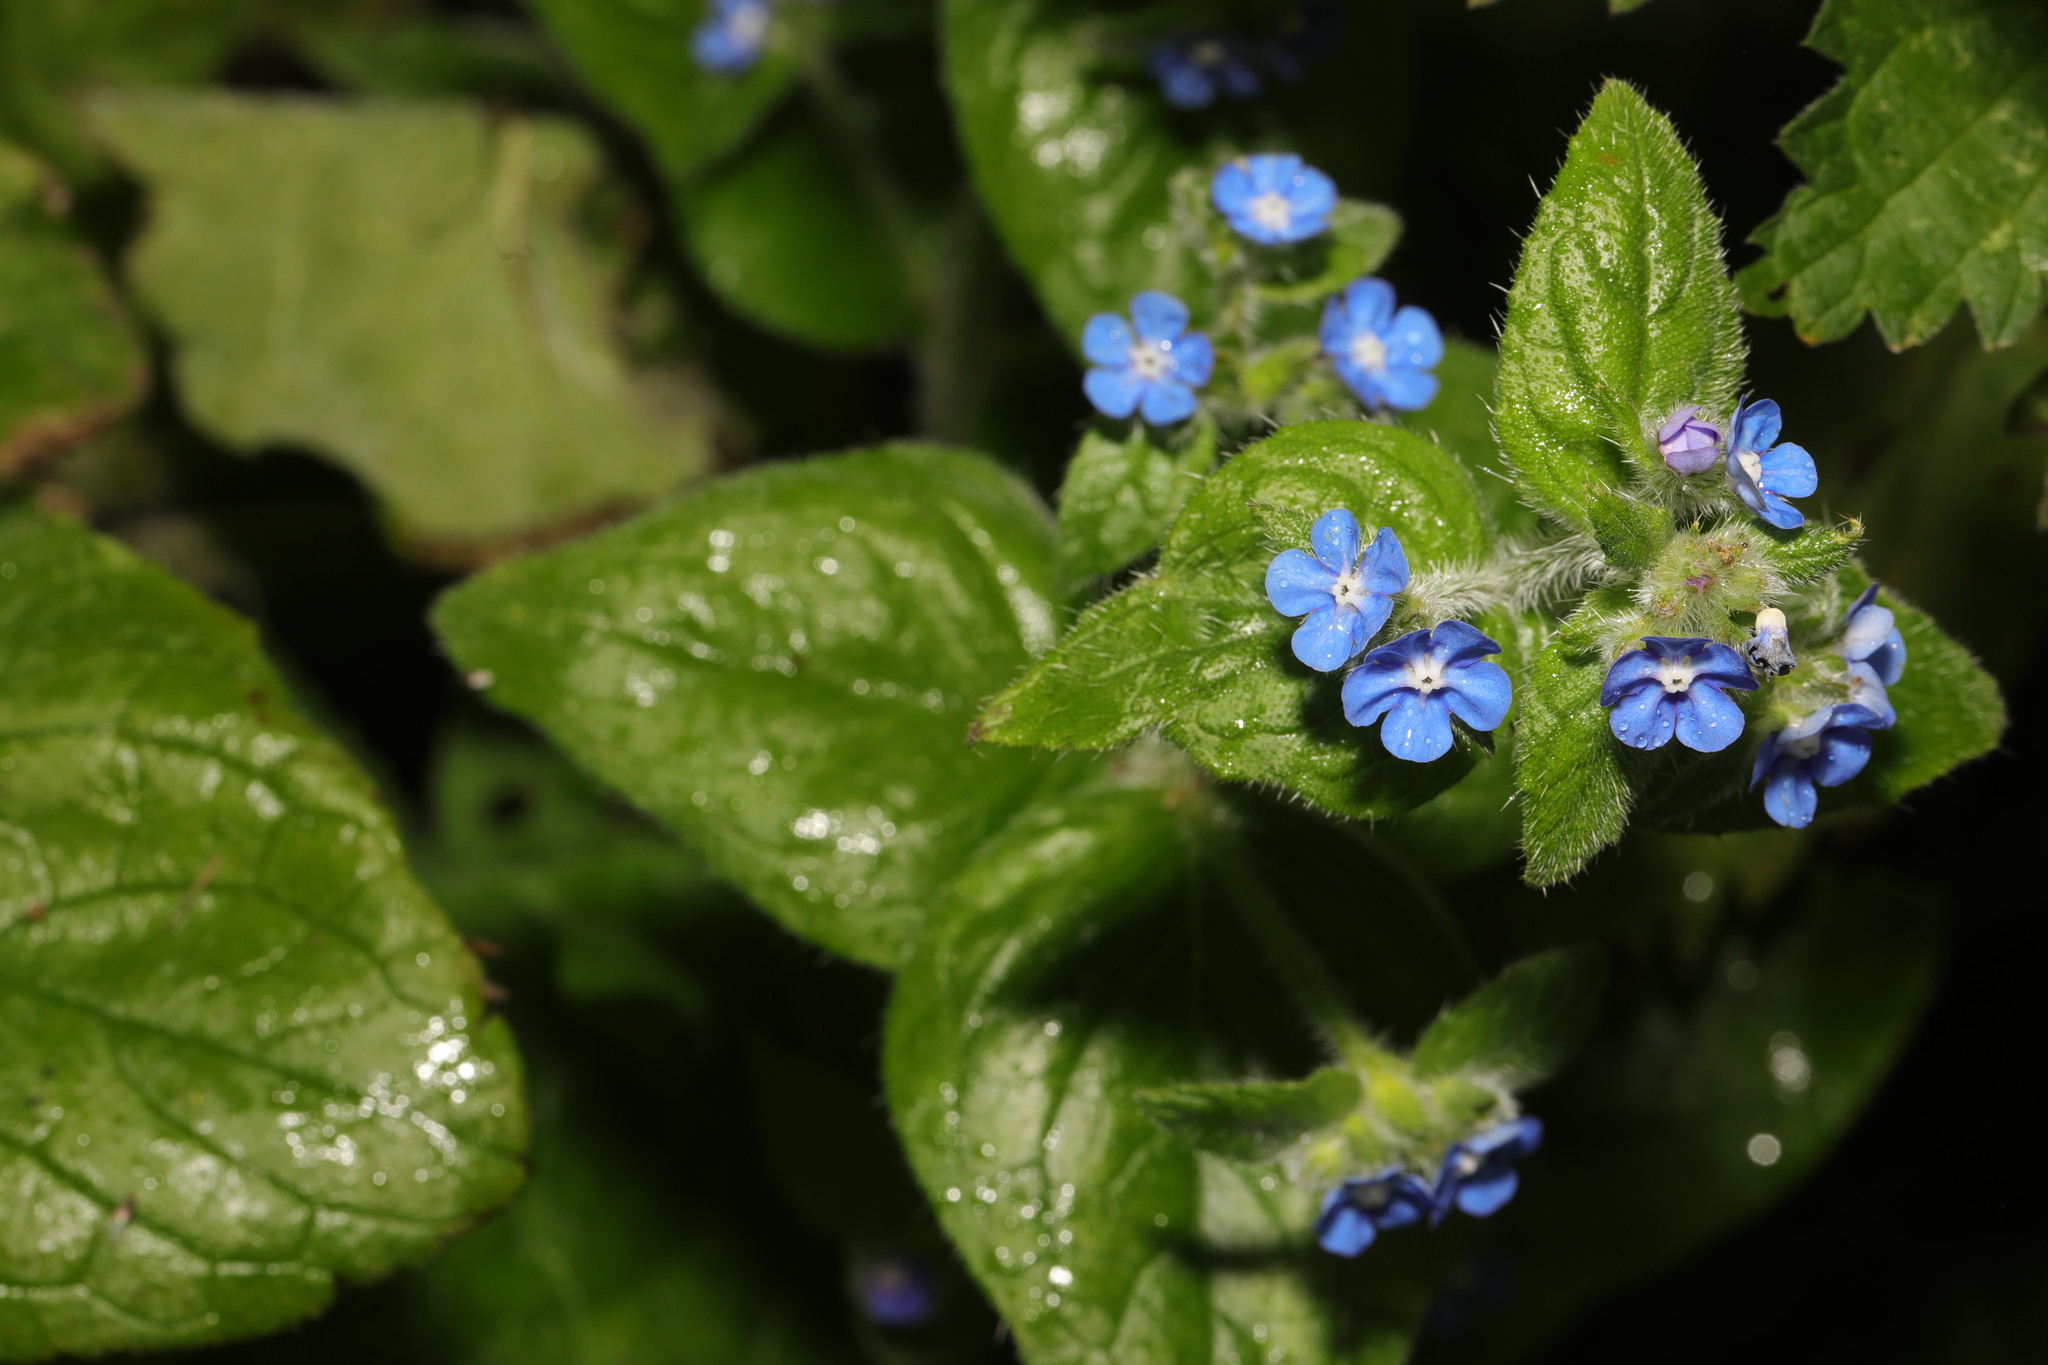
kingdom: Plantae
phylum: Tracheophyta
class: Magnoliopsida
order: Boraginales
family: Boraginaceae
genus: Pentaglottis
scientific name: Pentaglottis sempervirens
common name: Green alkanet
